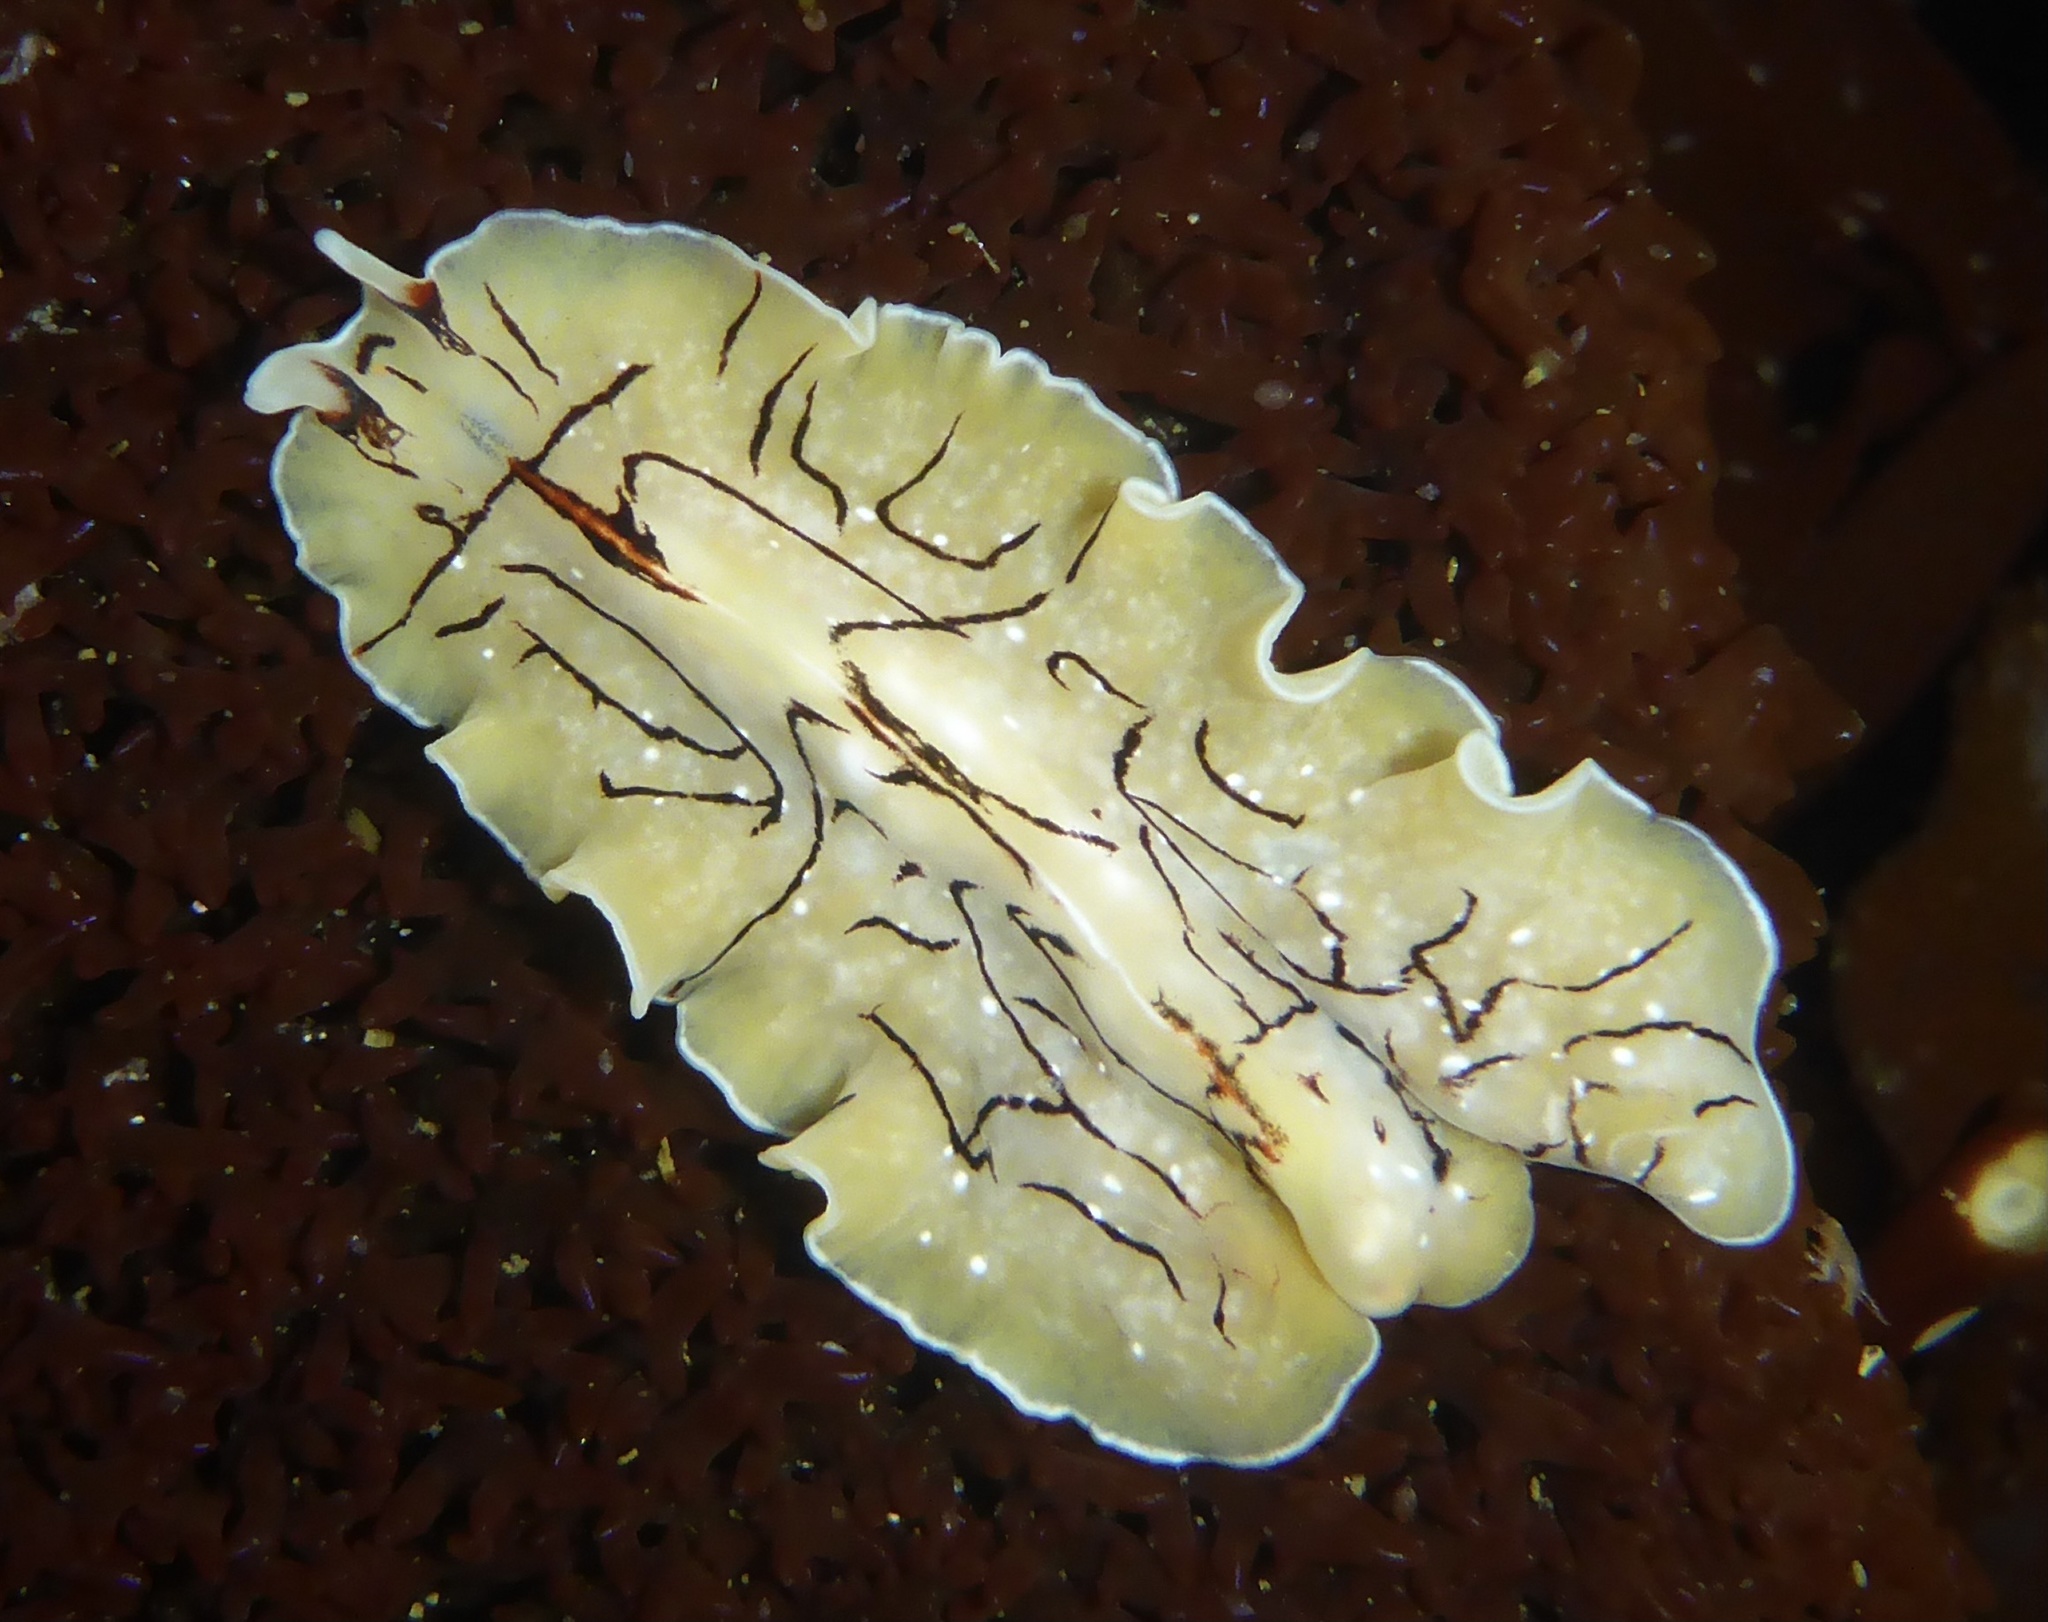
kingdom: Animalia
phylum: Platyhelminthes
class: Turbellaria
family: Euryleptidae
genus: Eurylepta
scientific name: Eurylepta californica
